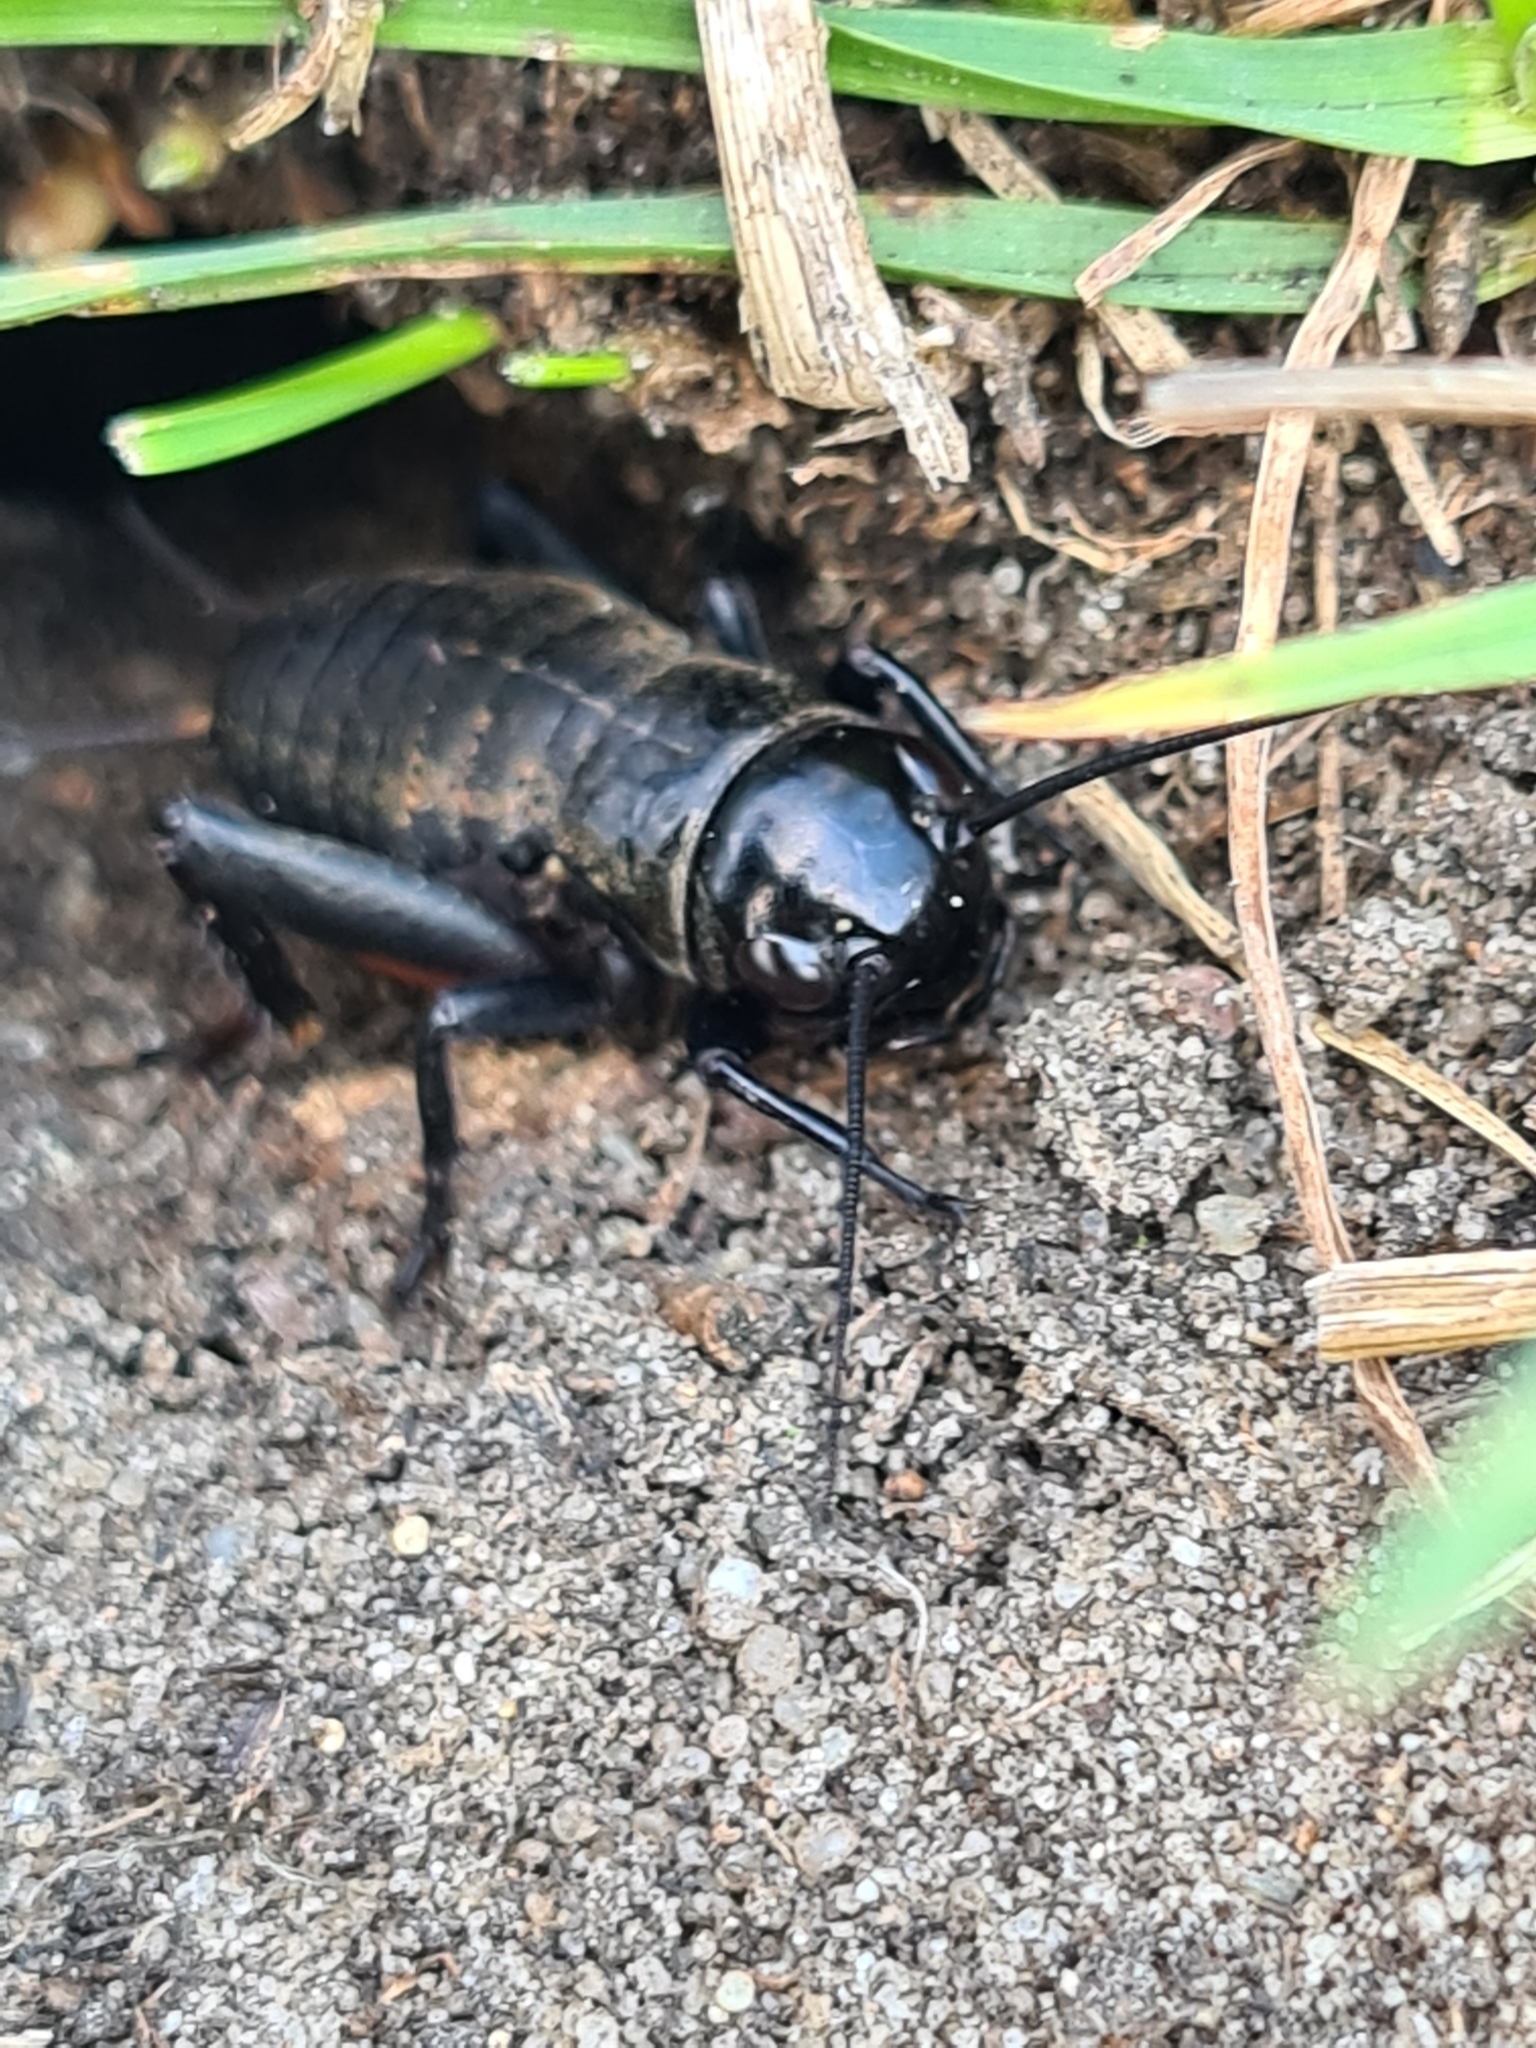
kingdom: Animalia
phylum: Arthropoda
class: Insecta
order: Orthoptera
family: Gryllidae
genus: Gryllus
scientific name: Gryllus campestris
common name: Field cricket
